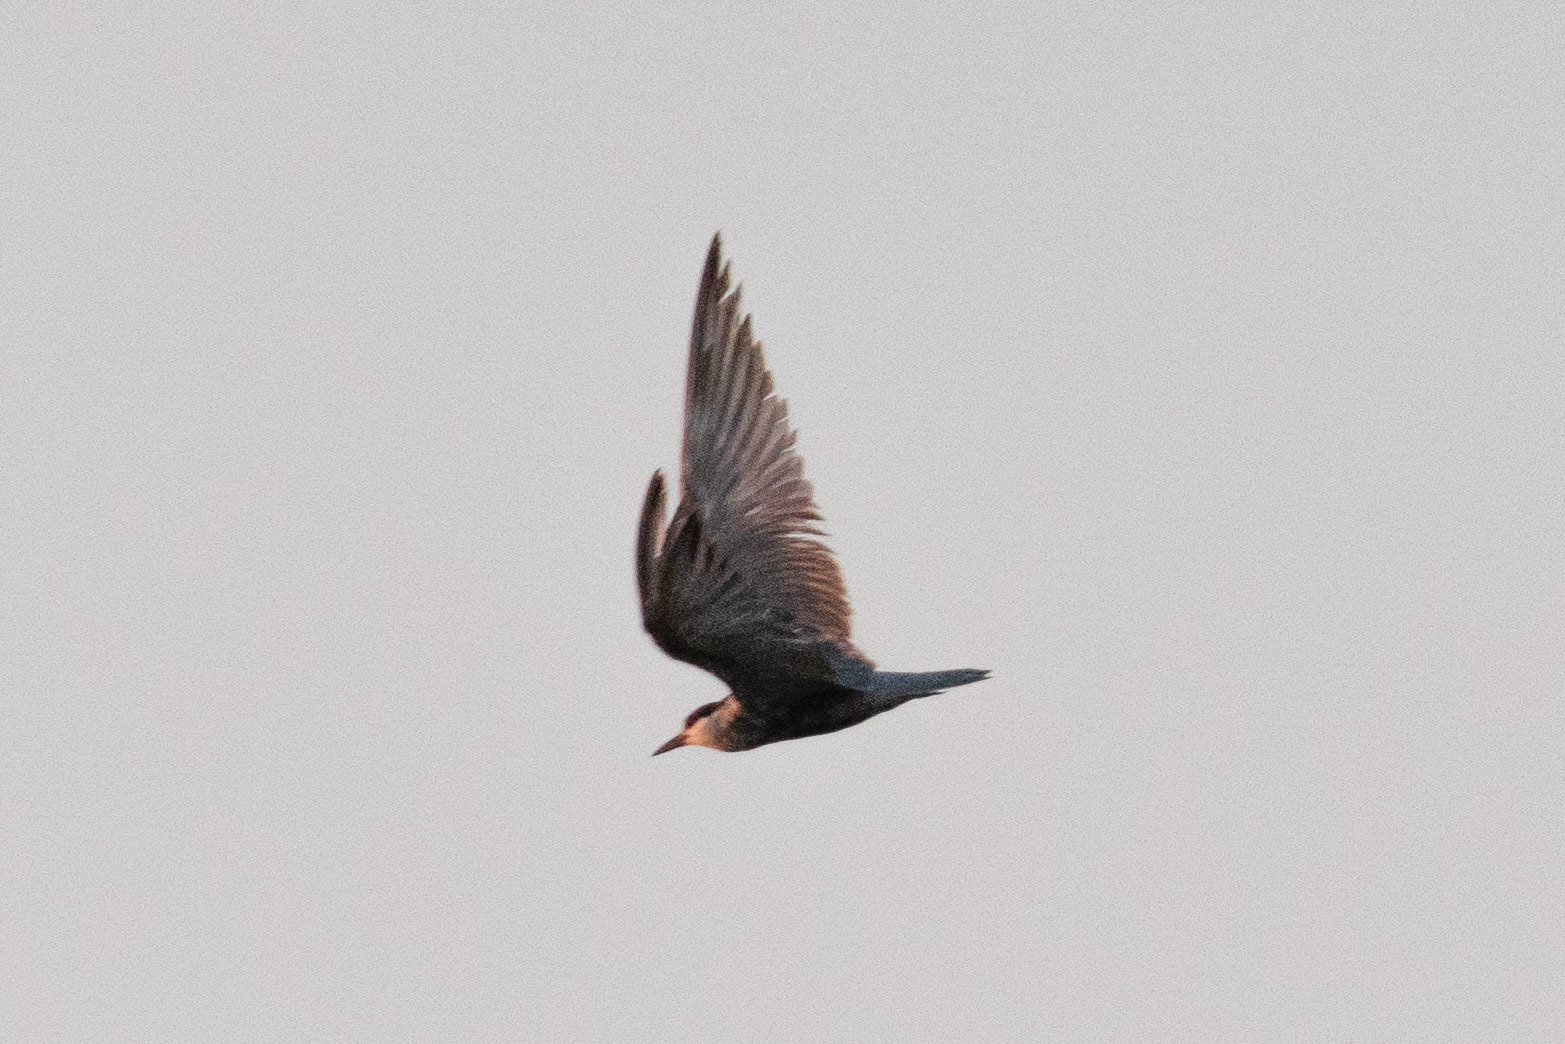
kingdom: Animalia
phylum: Chordata
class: Aves
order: Charadriiformes
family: Laridae
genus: Chlidonias
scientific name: Chlidonias hybrida
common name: Whiskered tern
